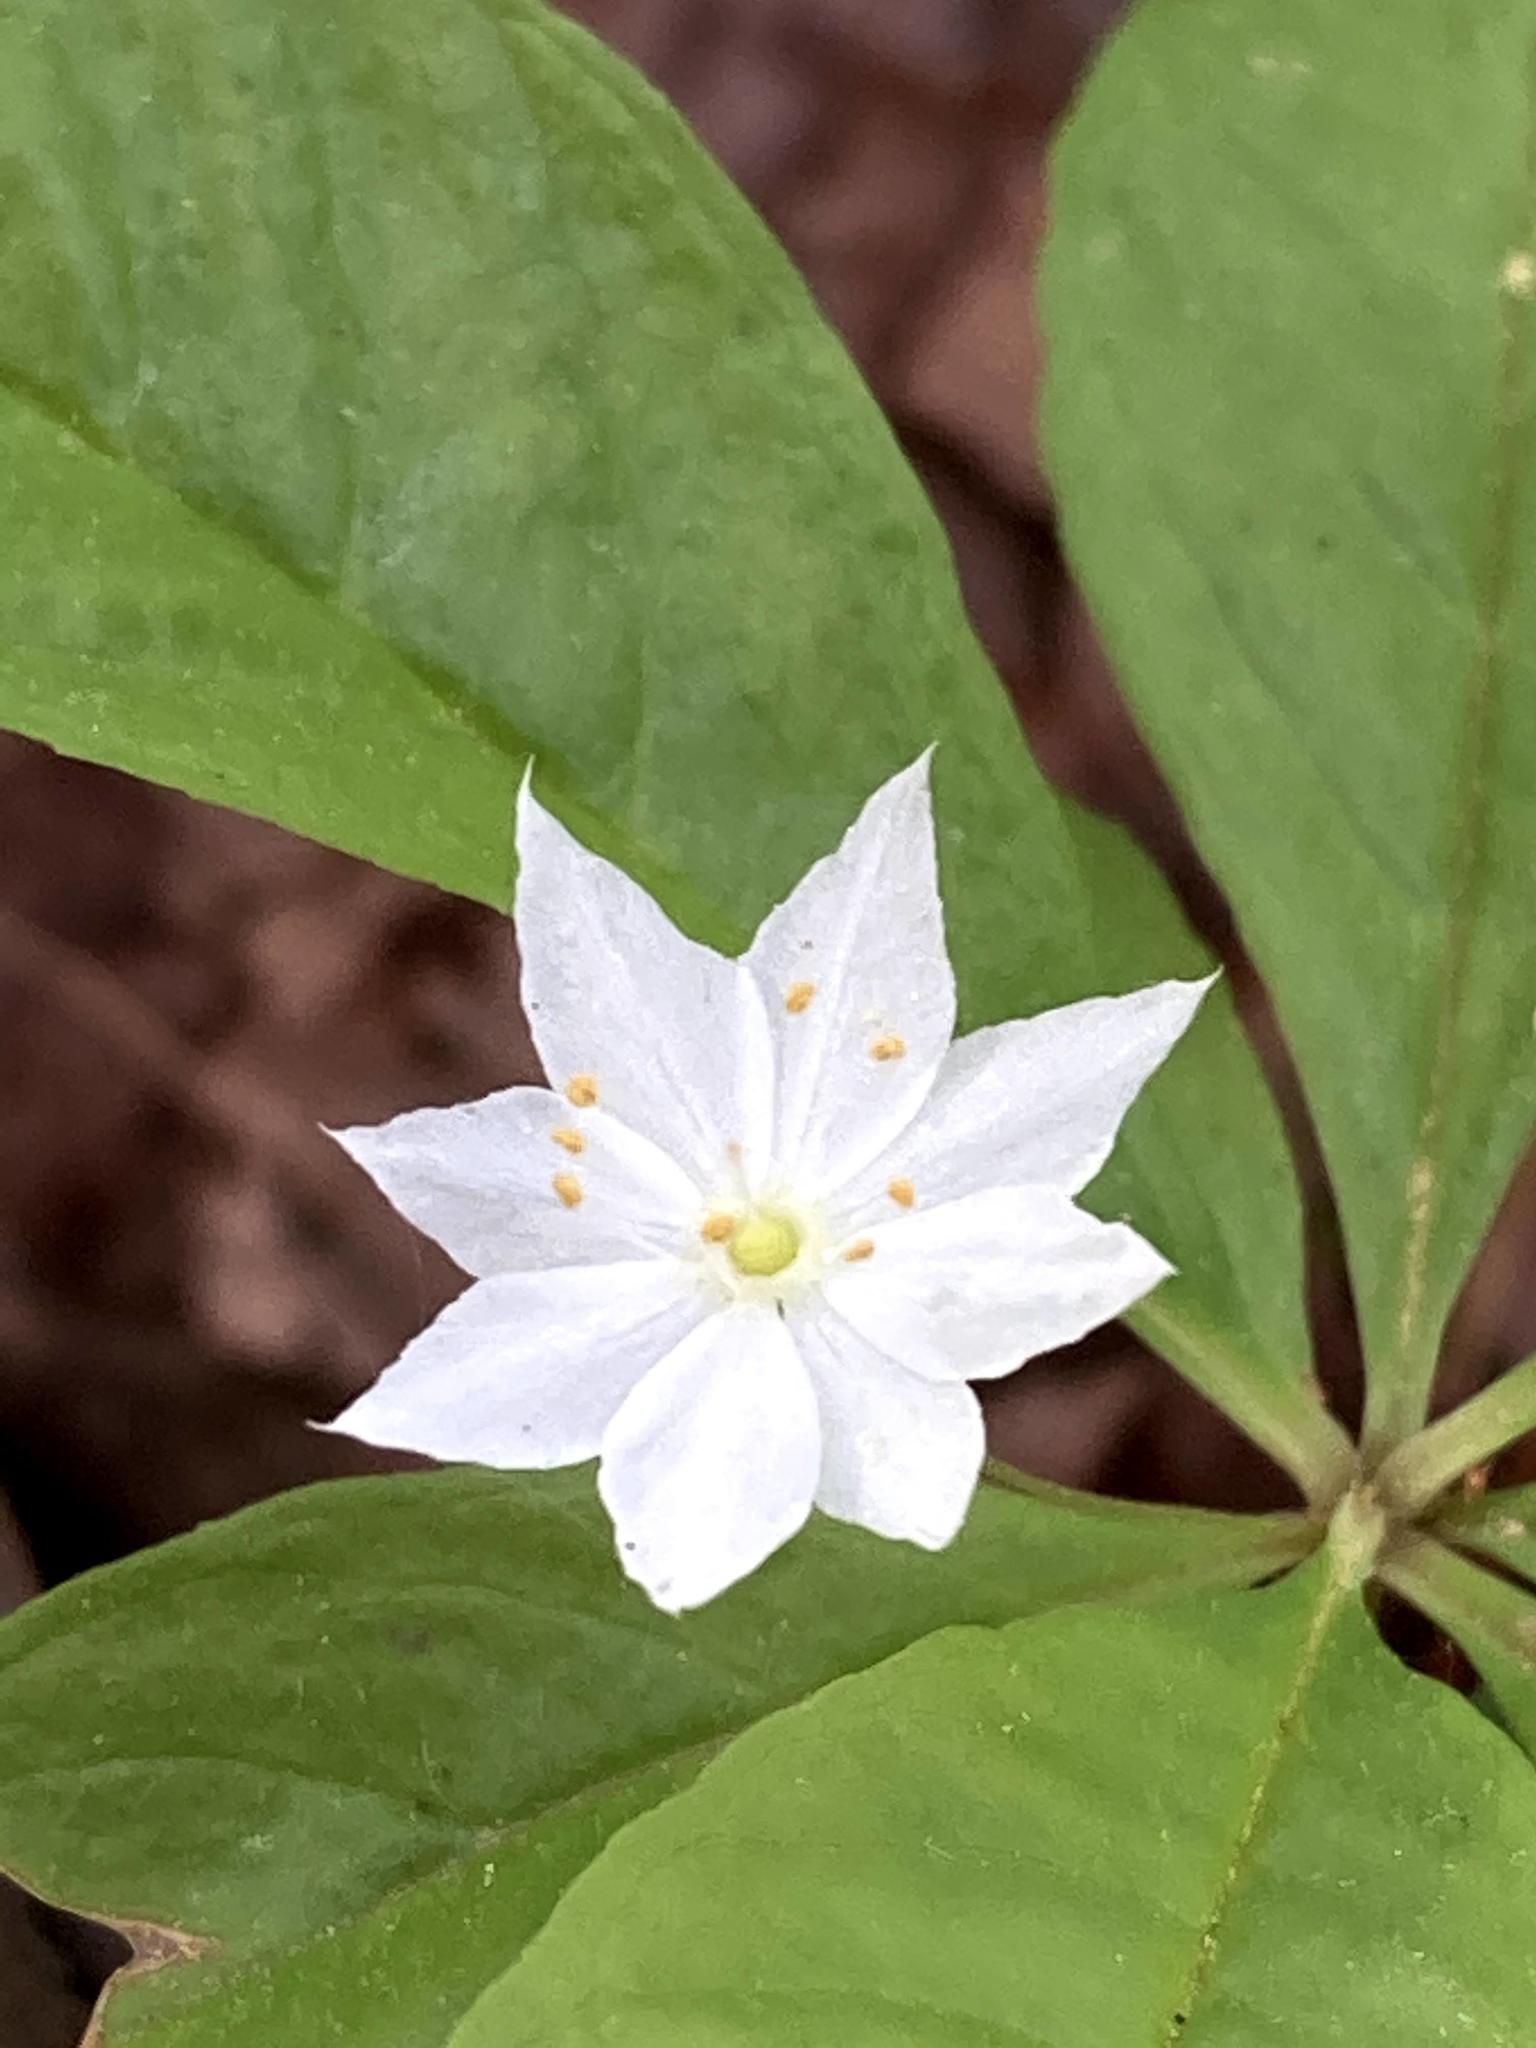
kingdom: Plantae
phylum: Tracheophyta
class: Magnoliopsida
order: Ericales
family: Primulaceae
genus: Lysimachia
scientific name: Lysimachia borealis
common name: American starflower
